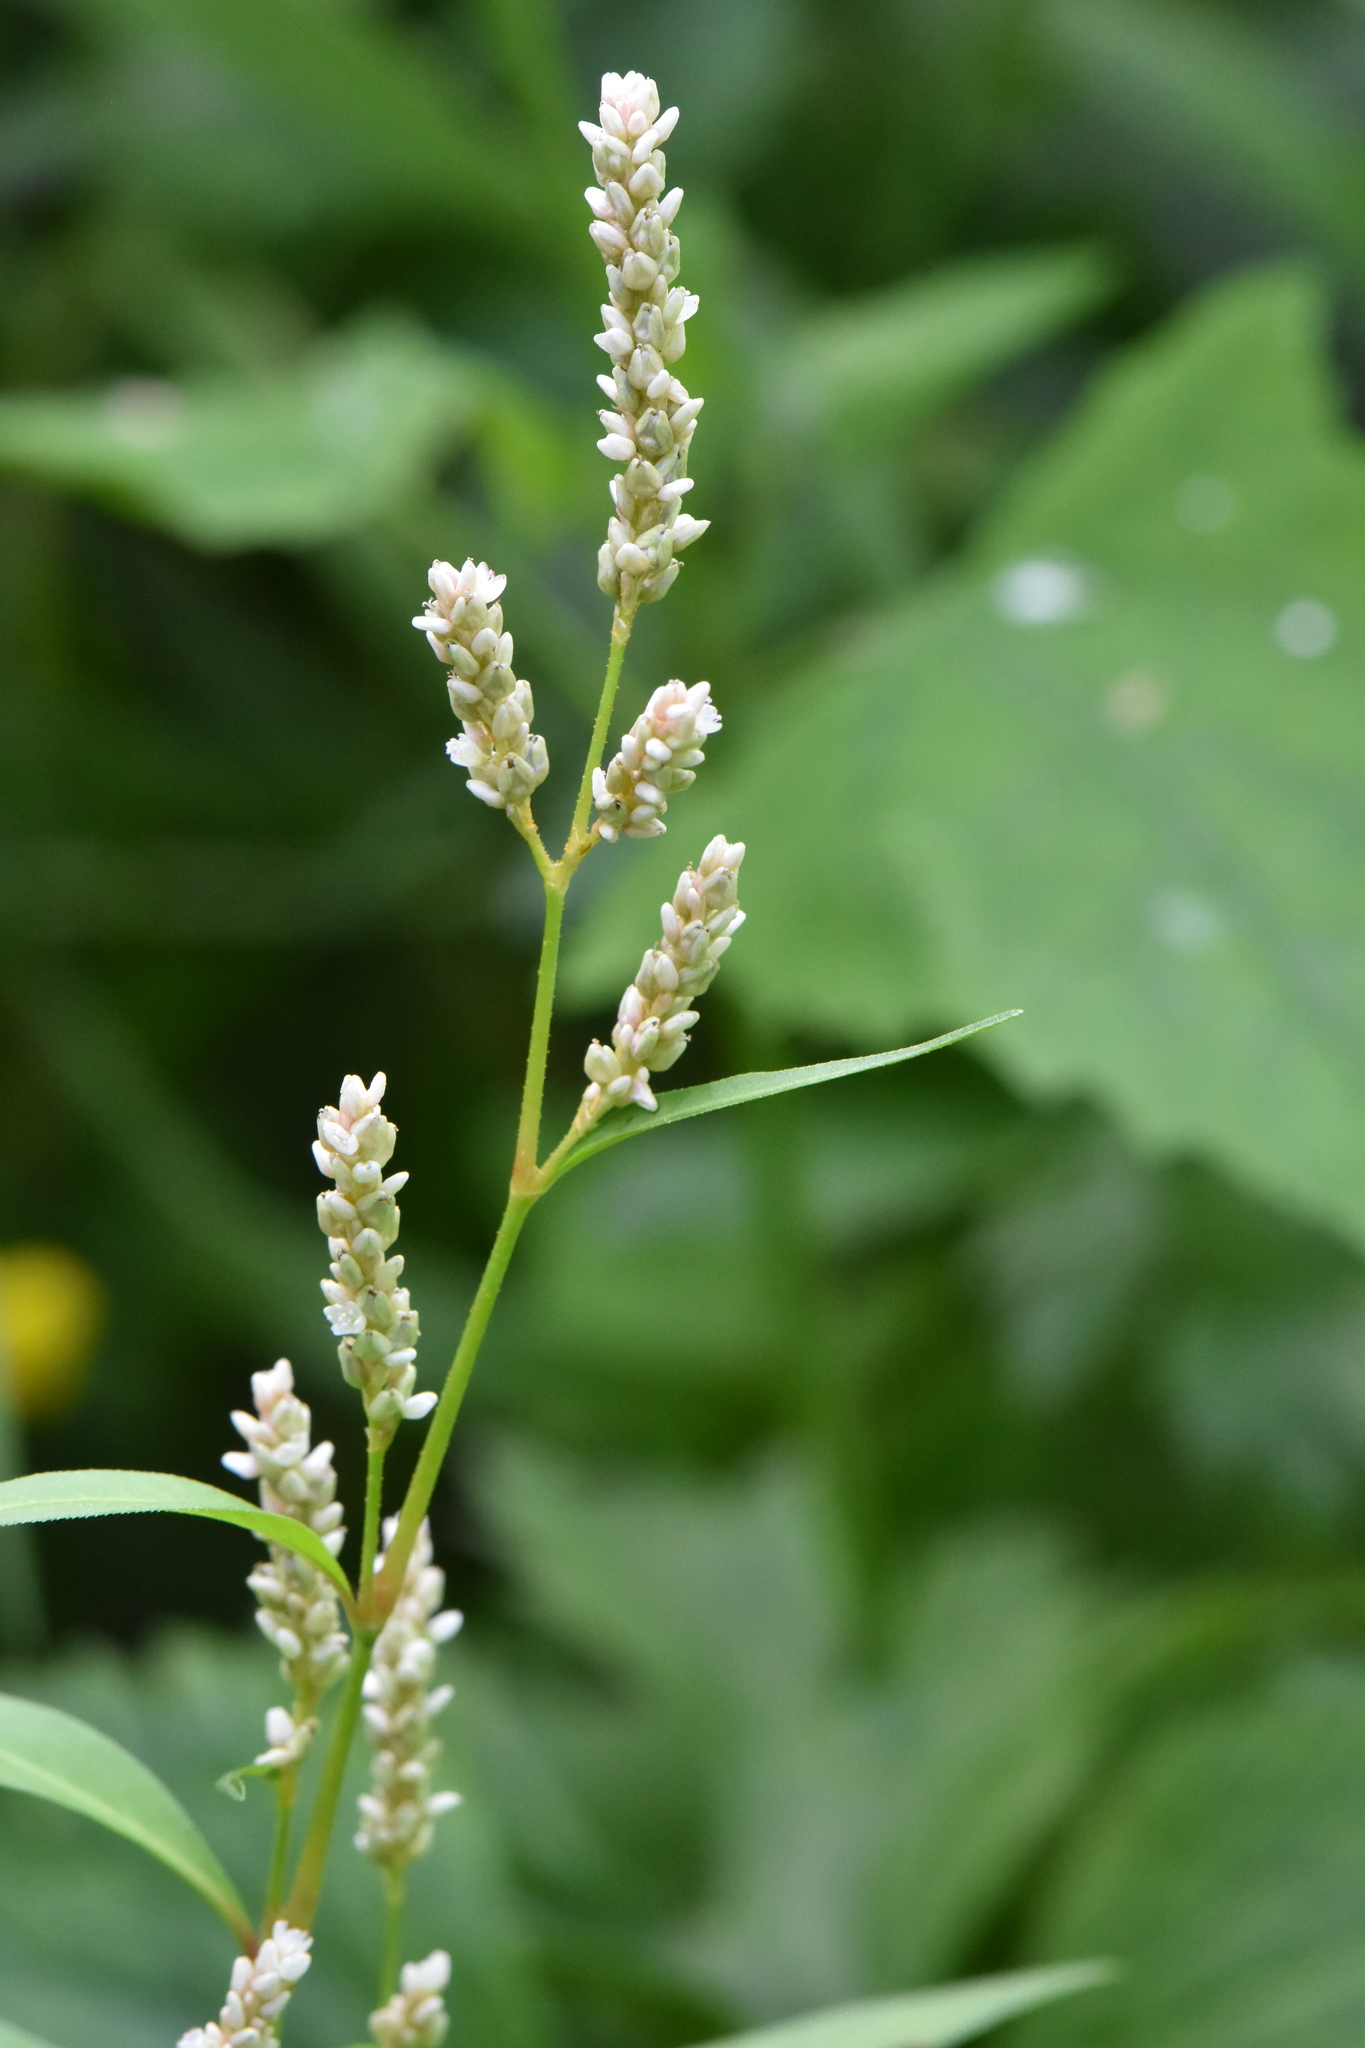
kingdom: Plantae
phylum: Tracheophyta
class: Magnoliopsida
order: Caryophyllales
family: Polygonaceae
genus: Persicaria
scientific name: Persicaria lapathifolia
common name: Curlytop knotweed
